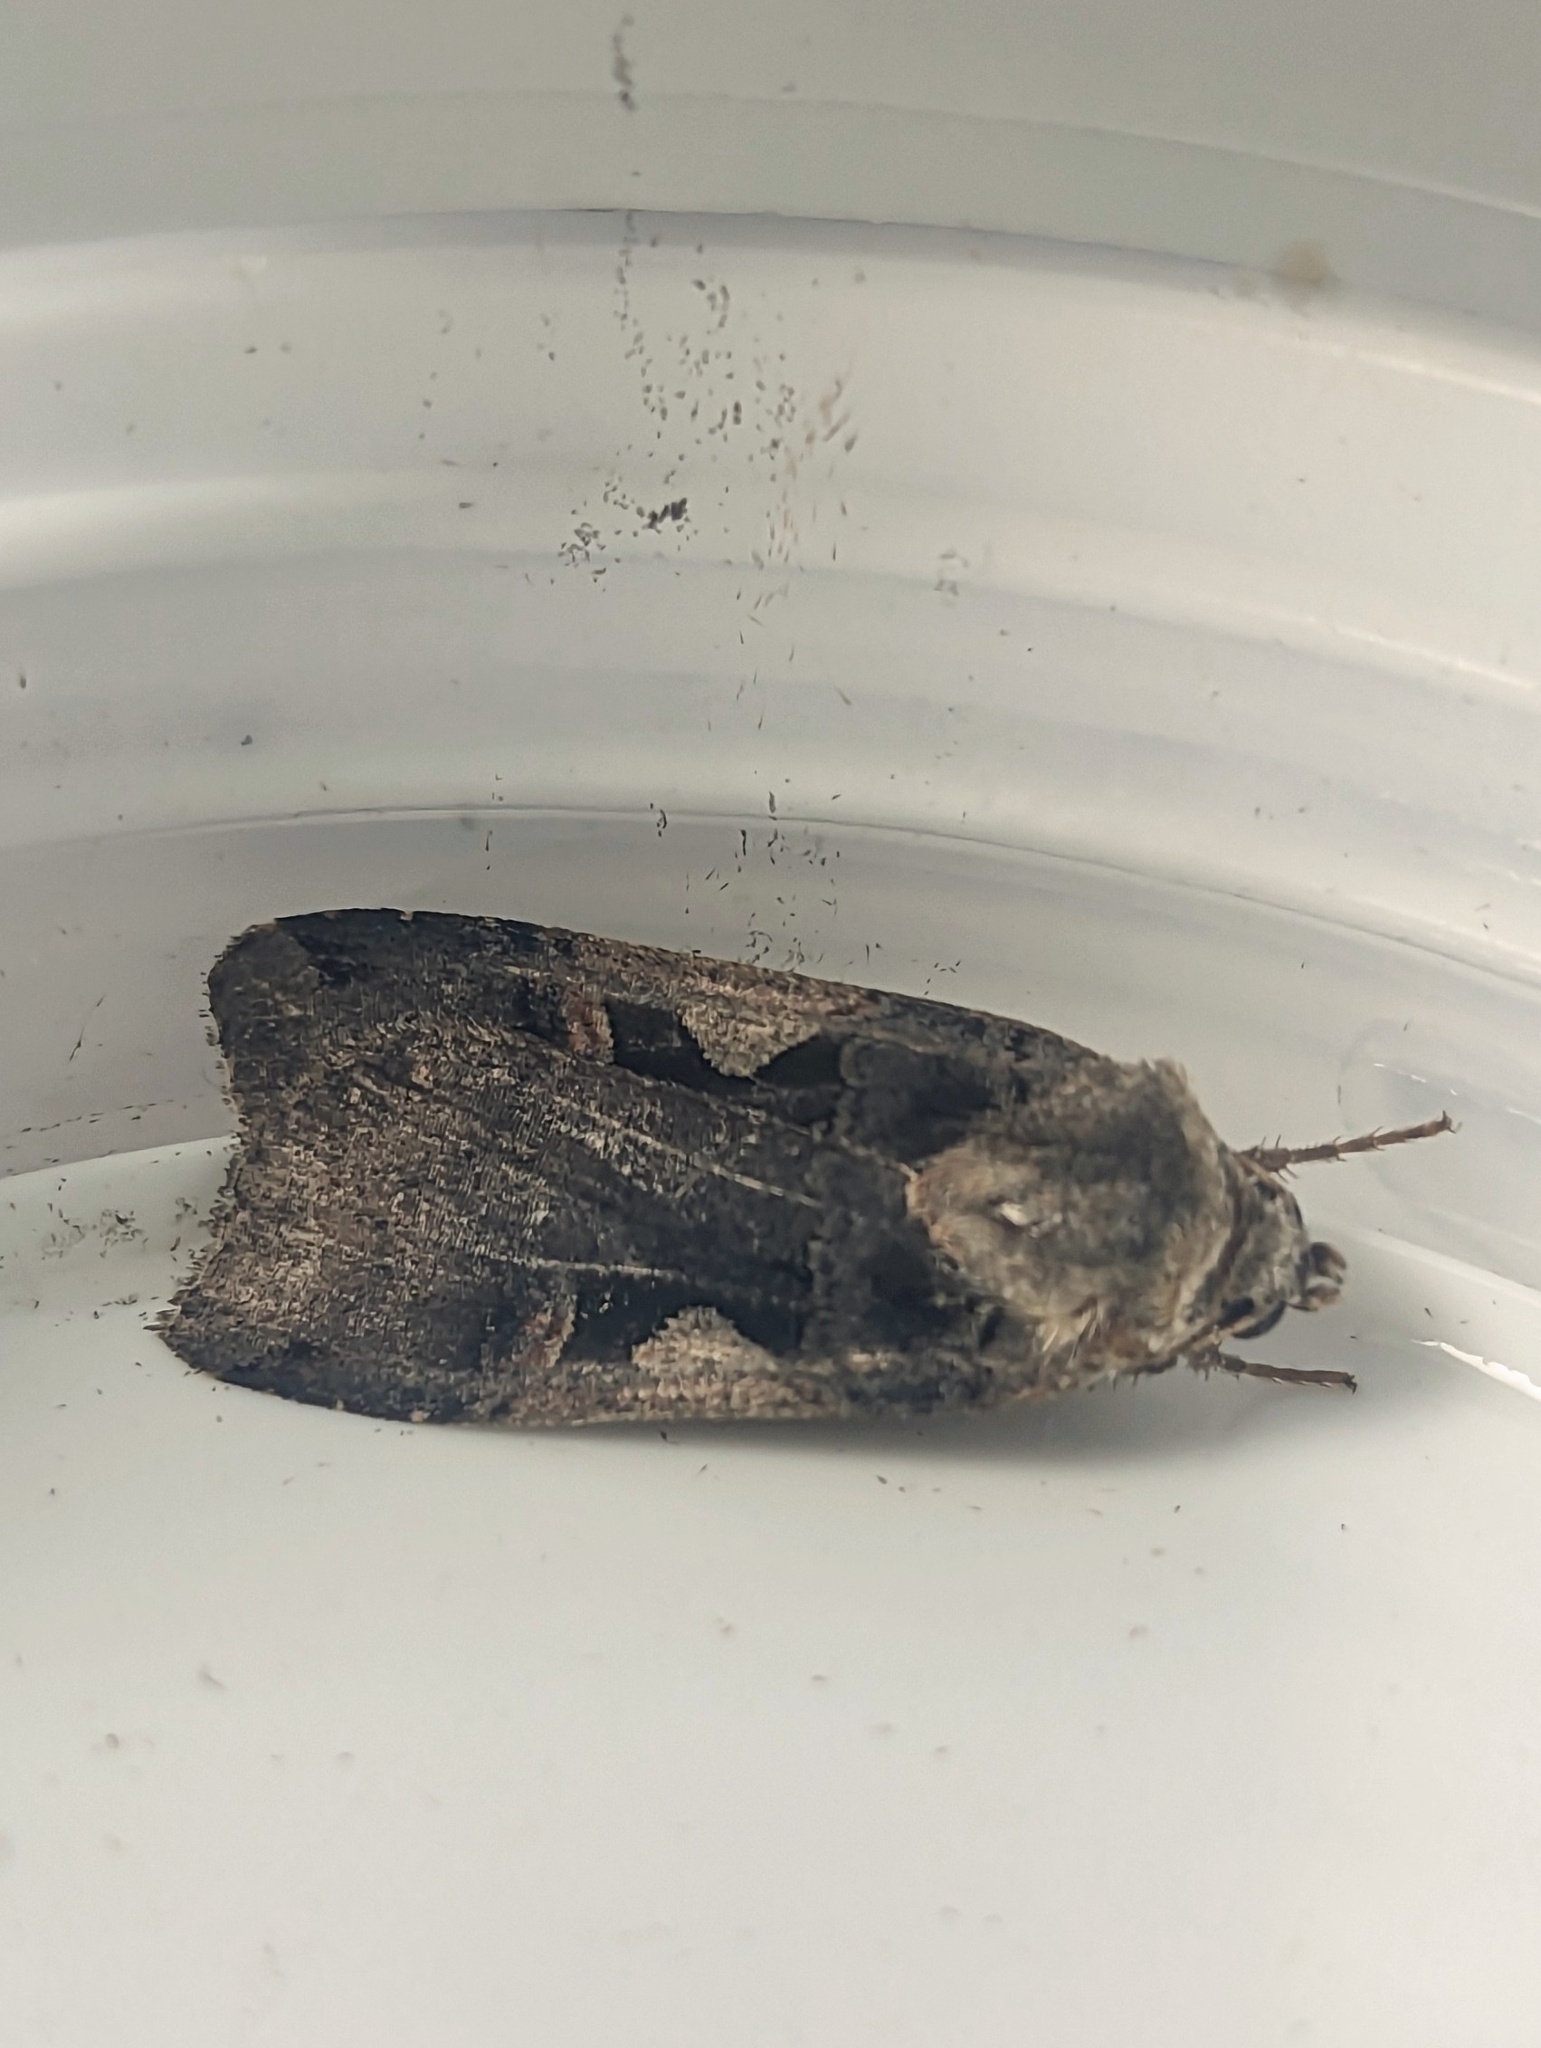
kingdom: Animalia
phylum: Arthropoda
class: Insecta
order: Lepidoptera
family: Noctuidae
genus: Xestia
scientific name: Xestia c-nigrum
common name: Setaceous hebrew character
